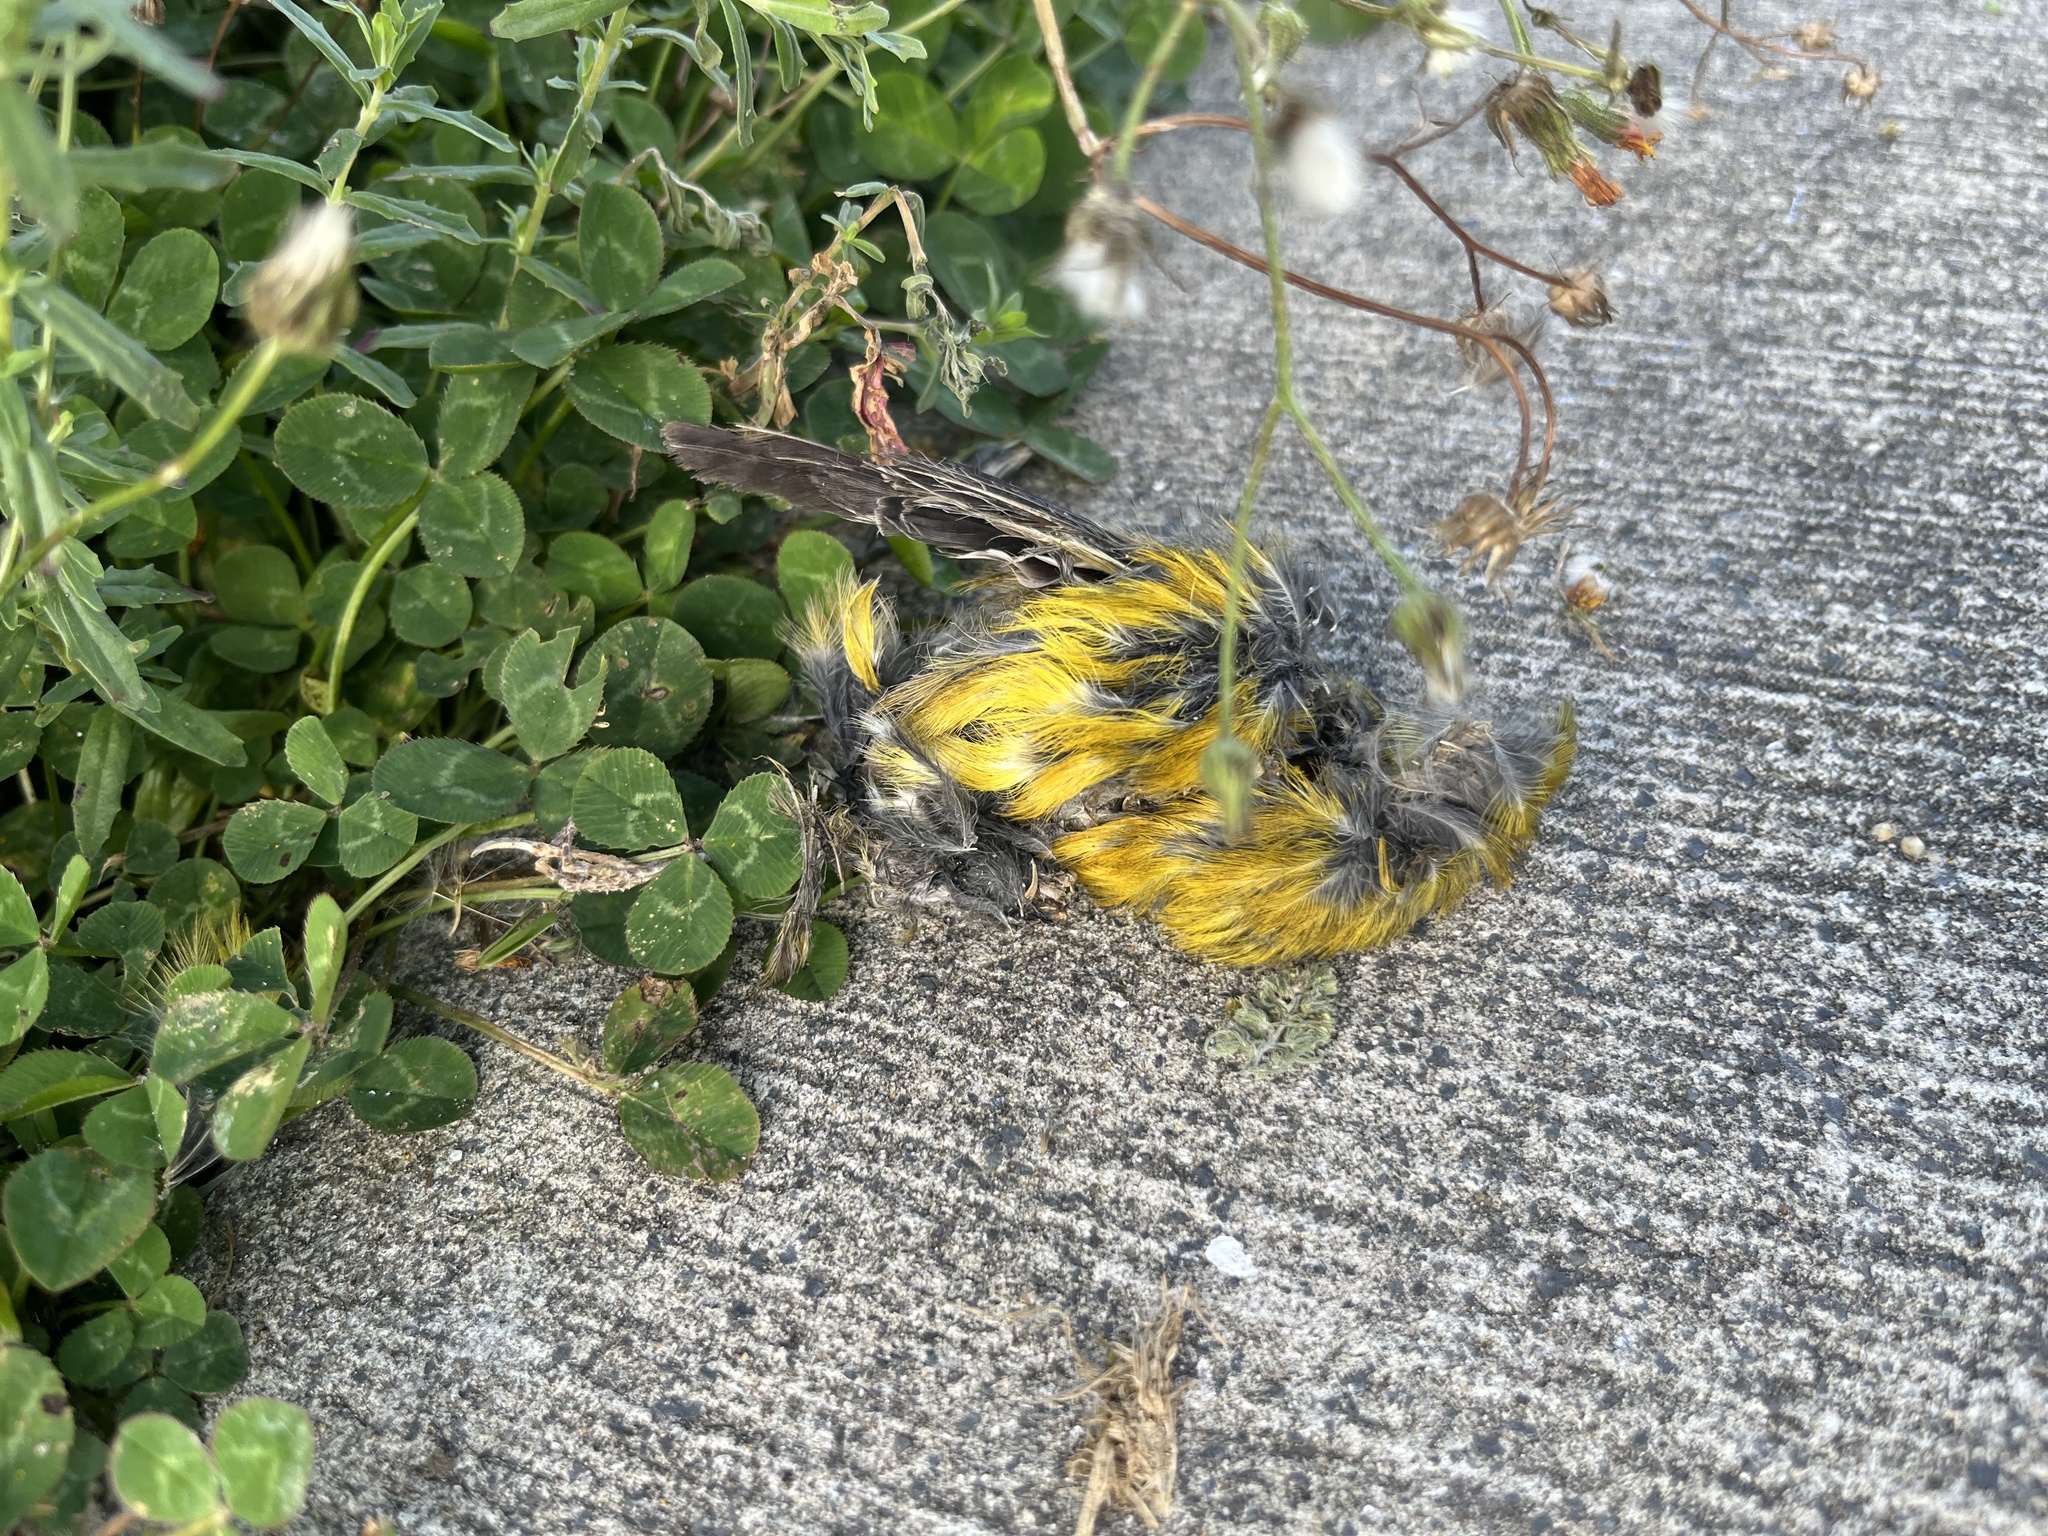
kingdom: Animalia
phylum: Chordata
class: Aves
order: Passeriformes
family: Emberizidae
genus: Emberiza
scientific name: Emberiza citrinella
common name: Yellowhammer
